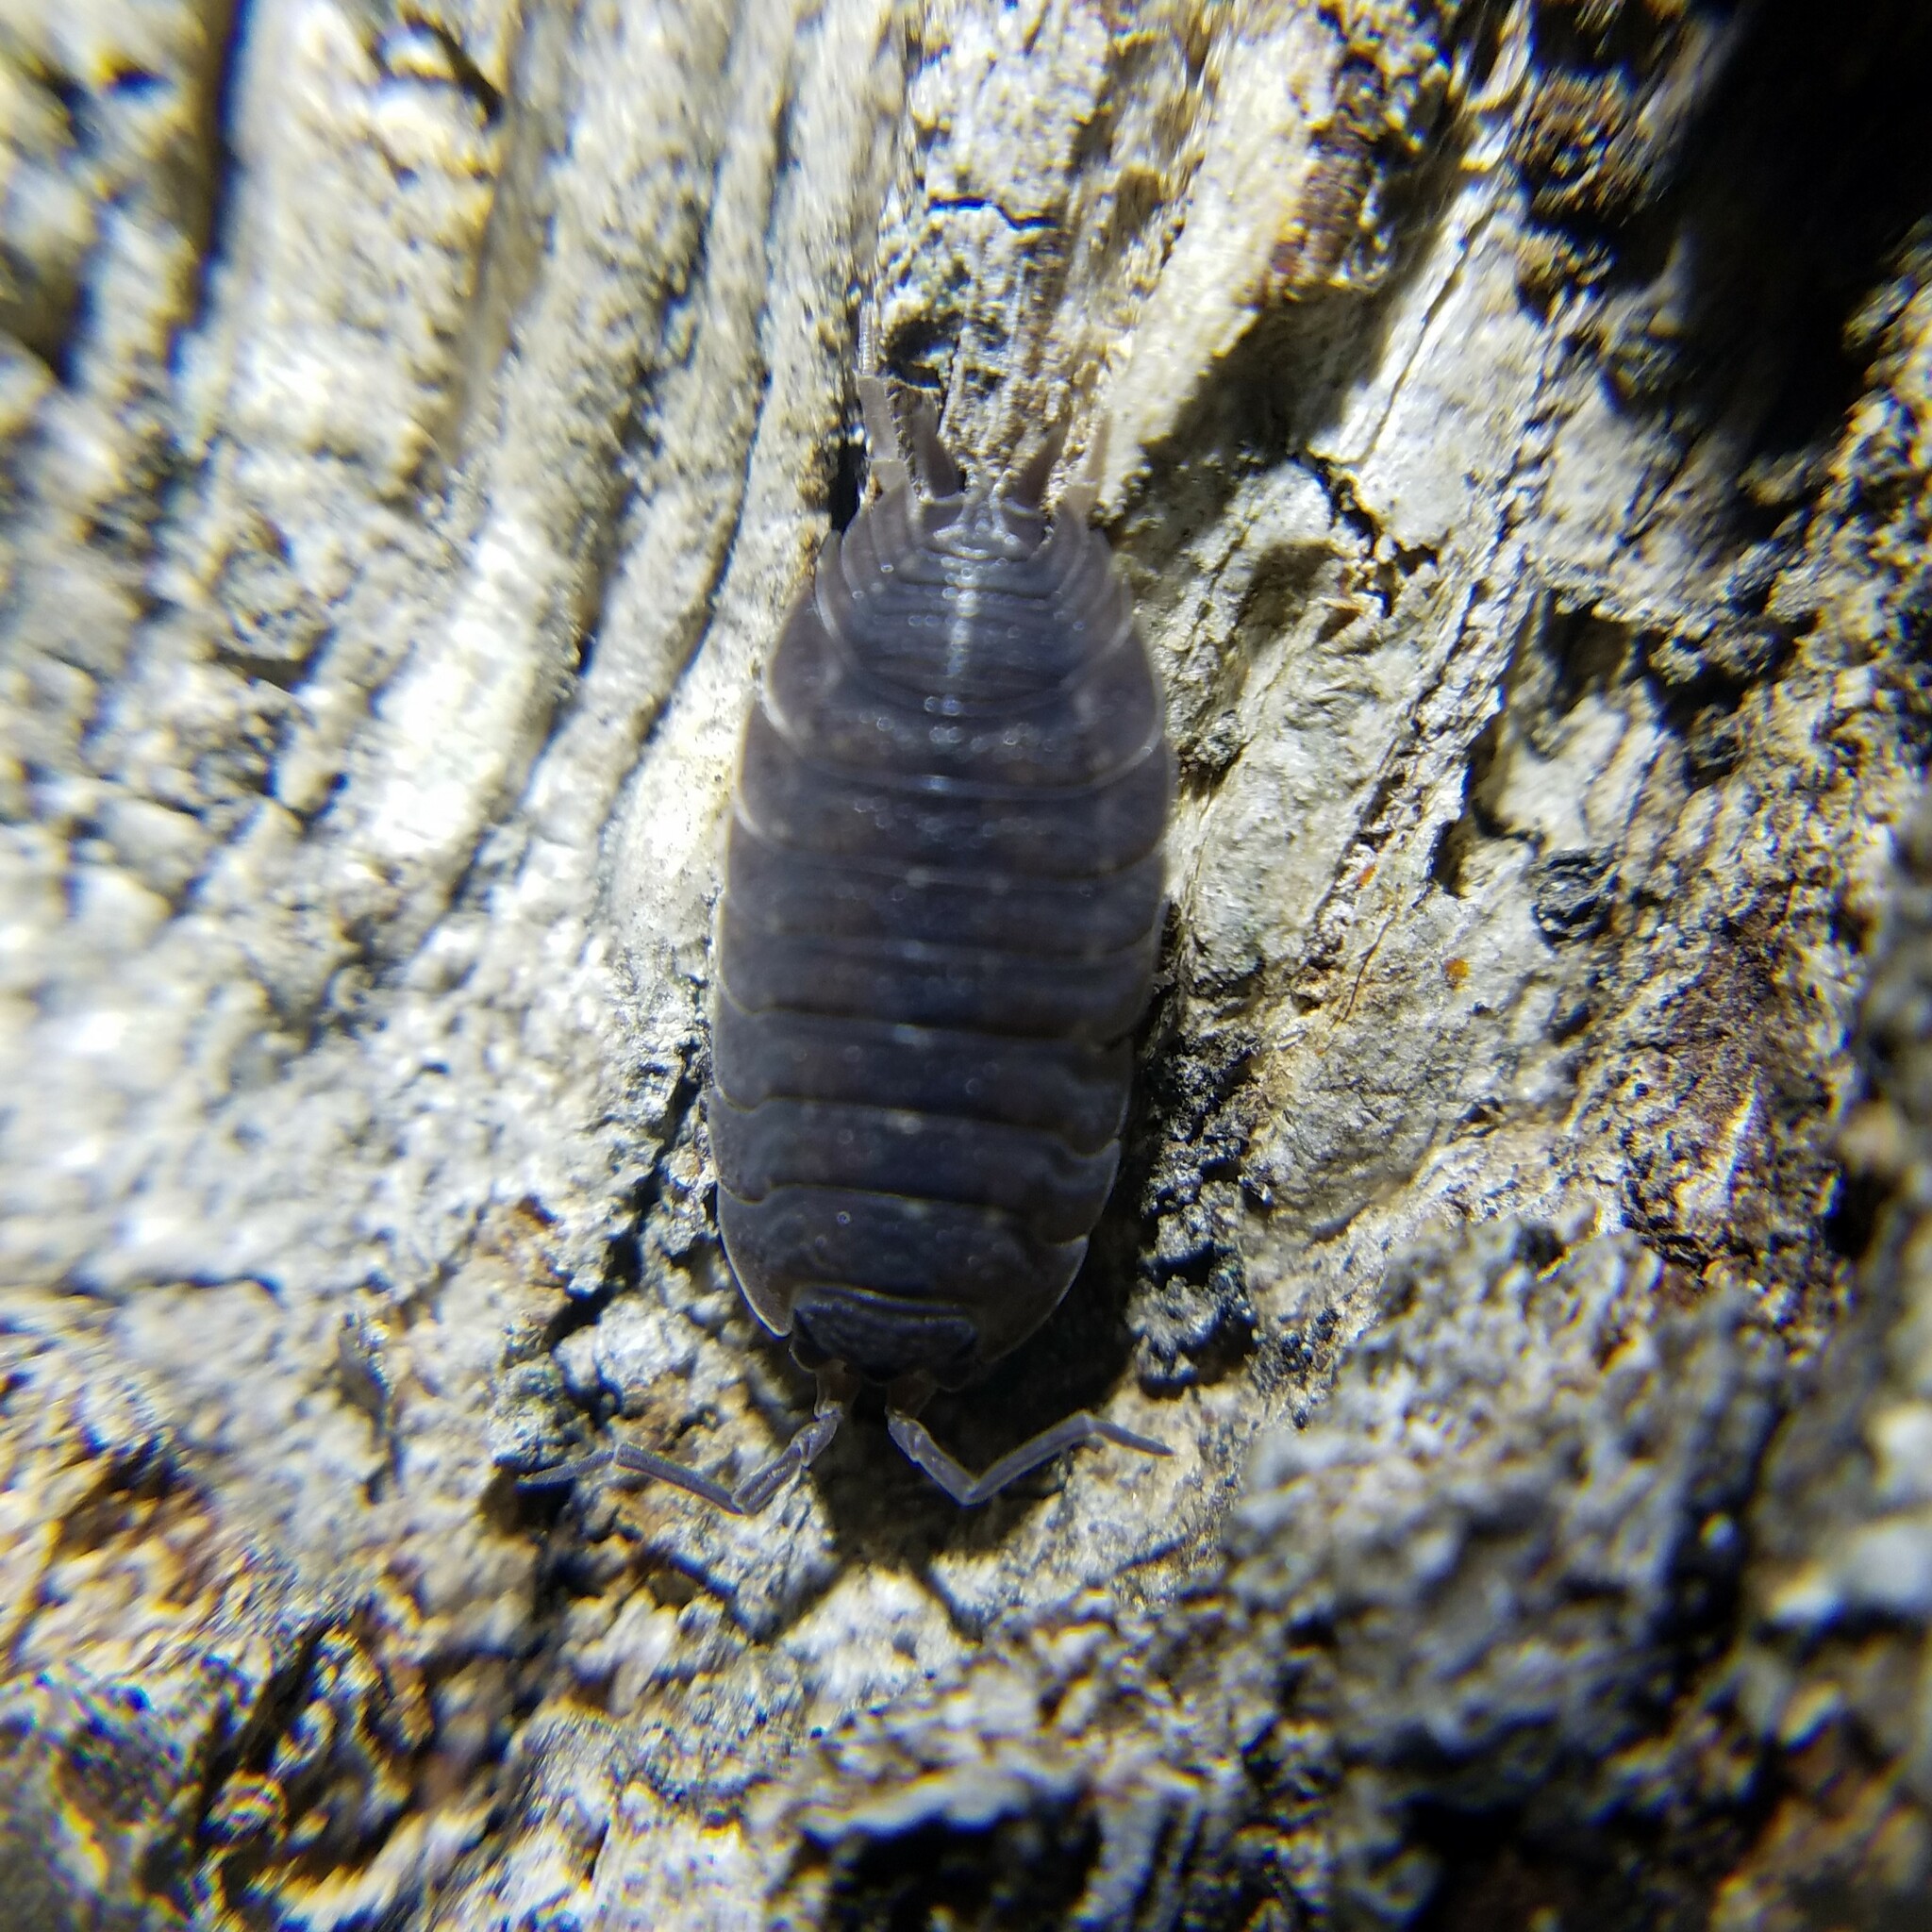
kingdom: Animalia
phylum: Arthropoda
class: Malacostraca
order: Isopoda
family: Porcellionidae
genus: Porcellio
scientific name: Porcellio scaber
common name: Common rough woodlouse
